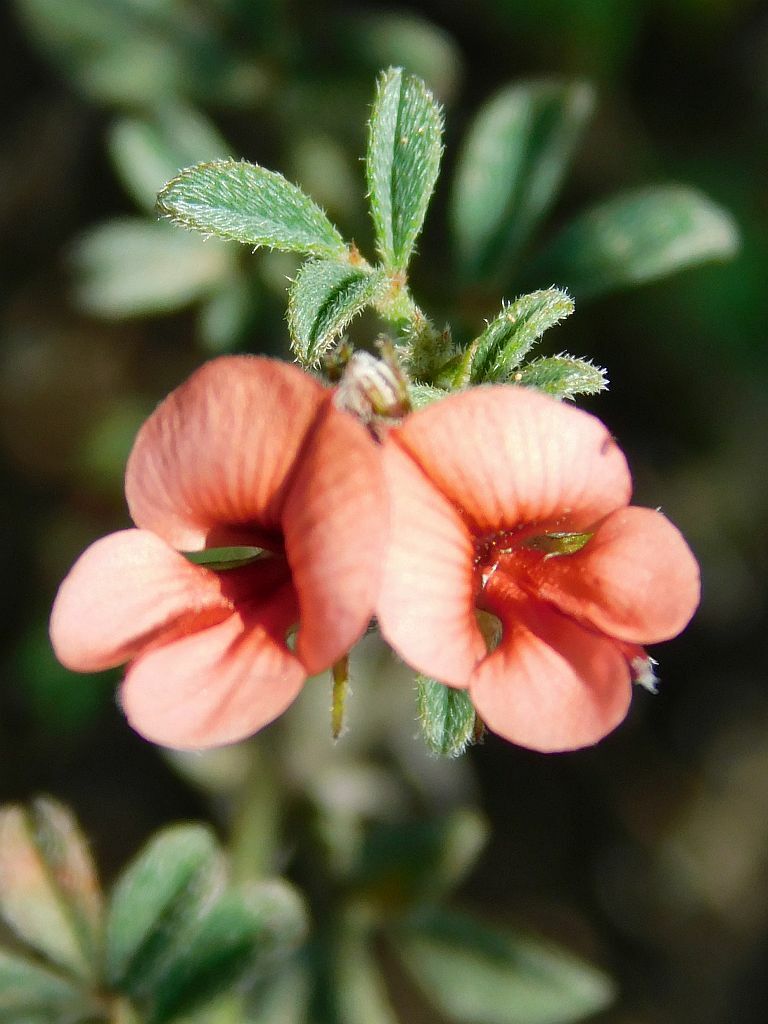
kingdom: Plantae
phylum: Tracheophyta
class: Magnoliopsida
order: Fabales
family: Fabaceae
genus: Indigofera
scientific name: Indigofera priorii
